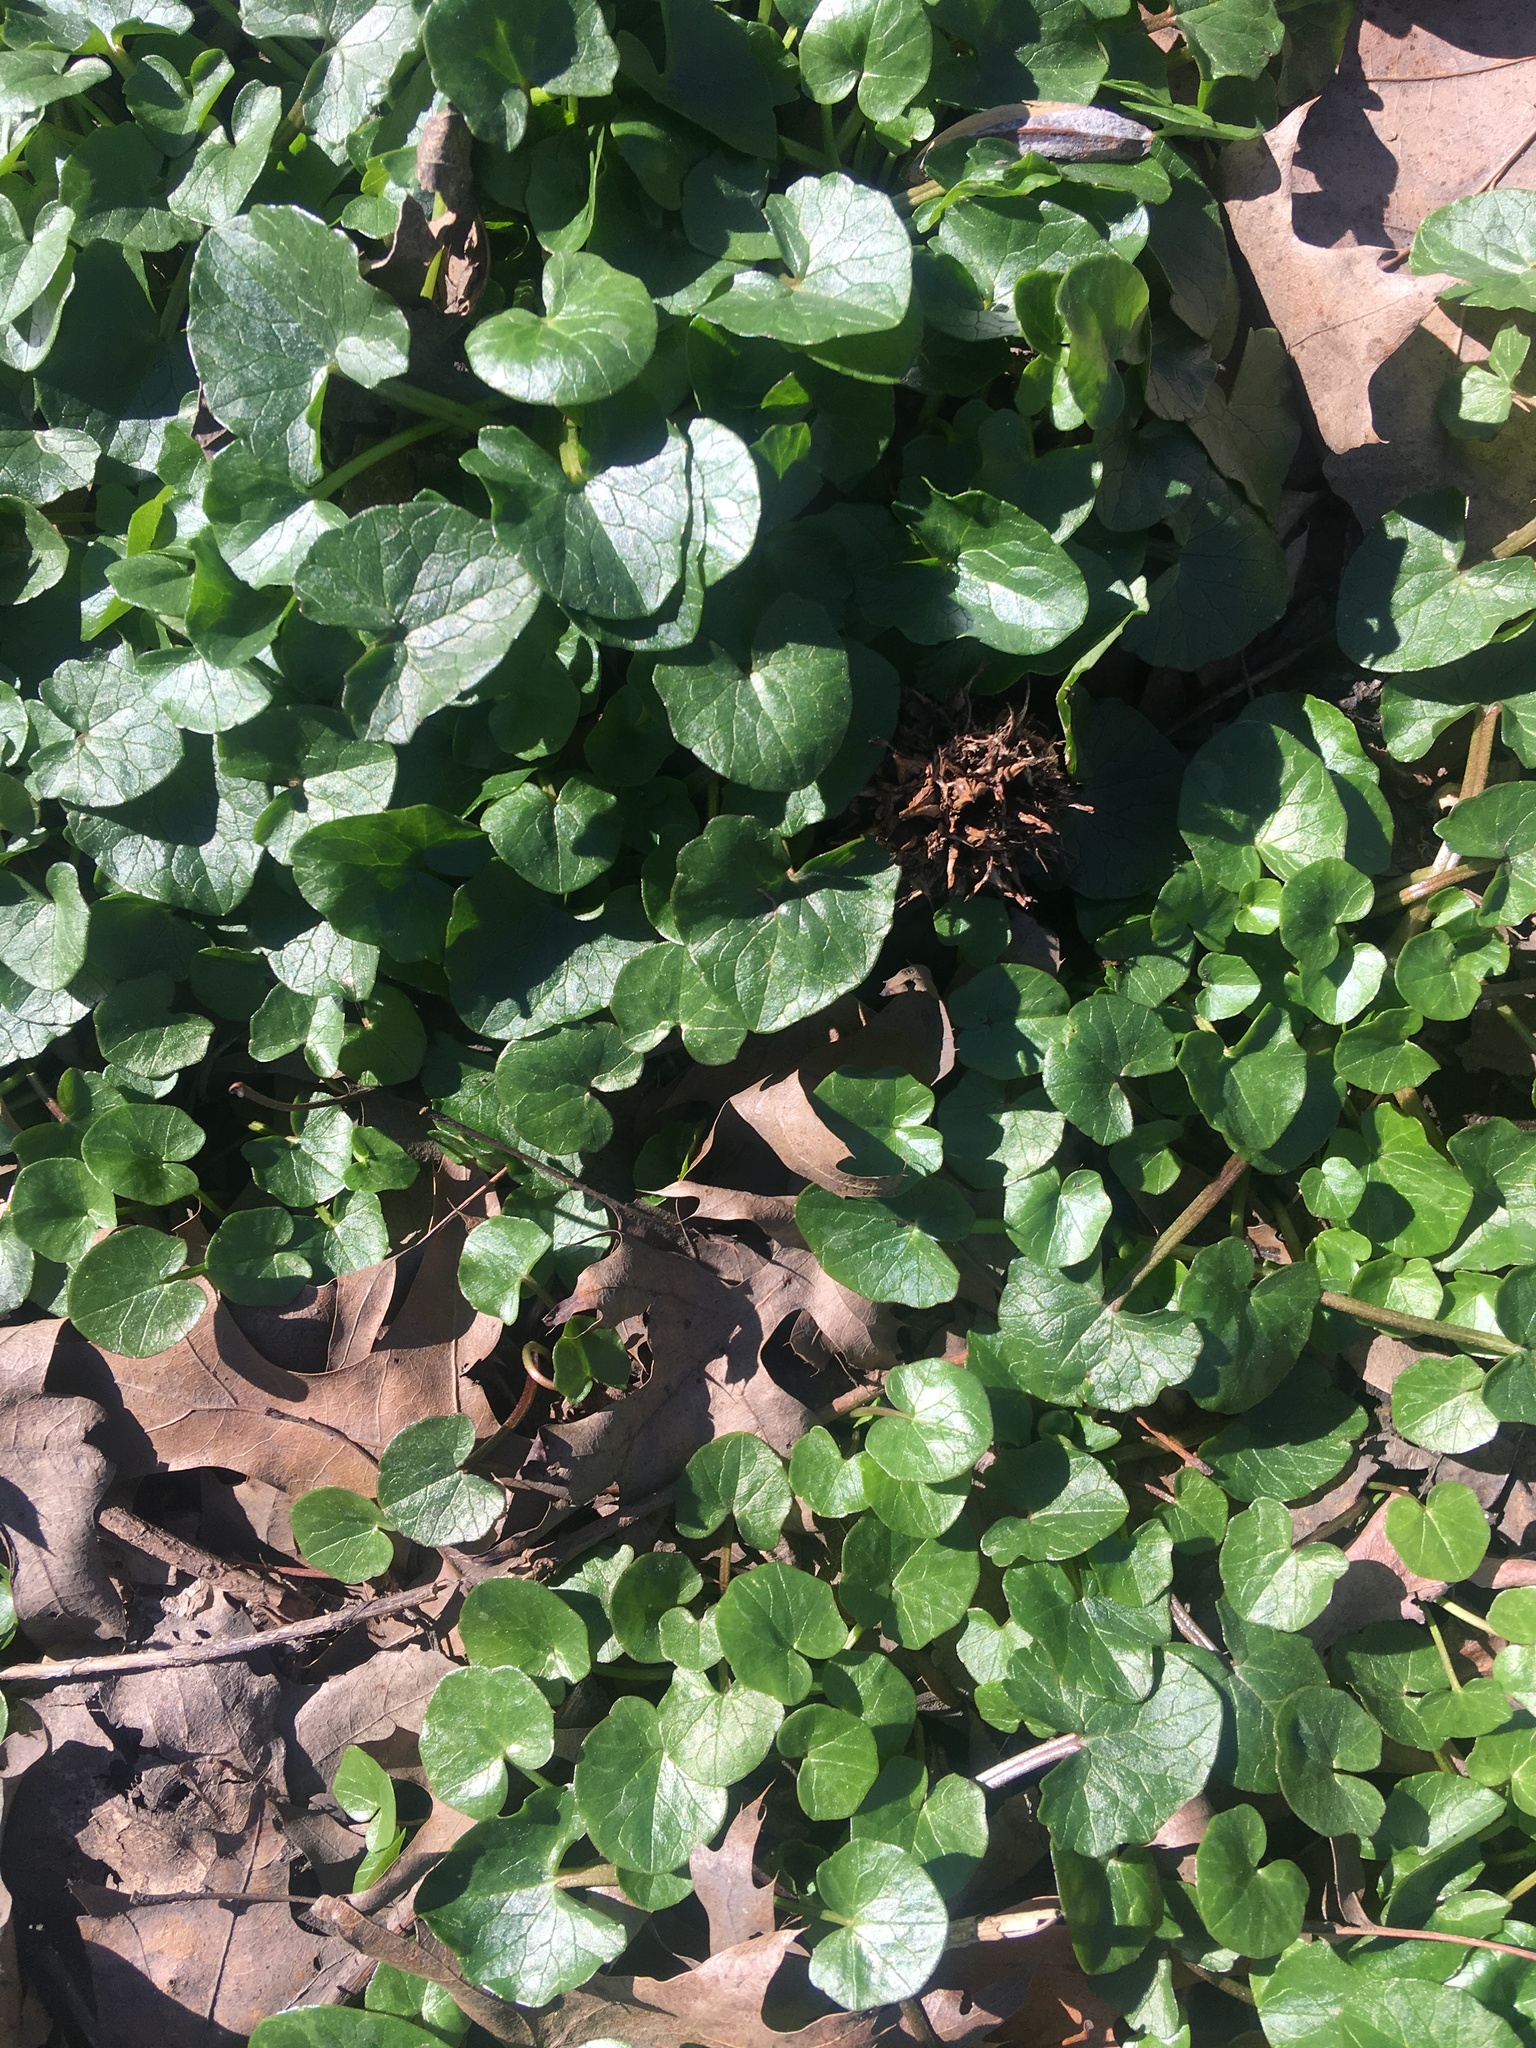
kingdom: Plantae
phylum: Tracheophyta
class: Magnoliopsida
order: Ranunculales
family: Ranunculaceae
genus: Ficaria
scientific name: Ficaria verna
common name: Lesser celandine
